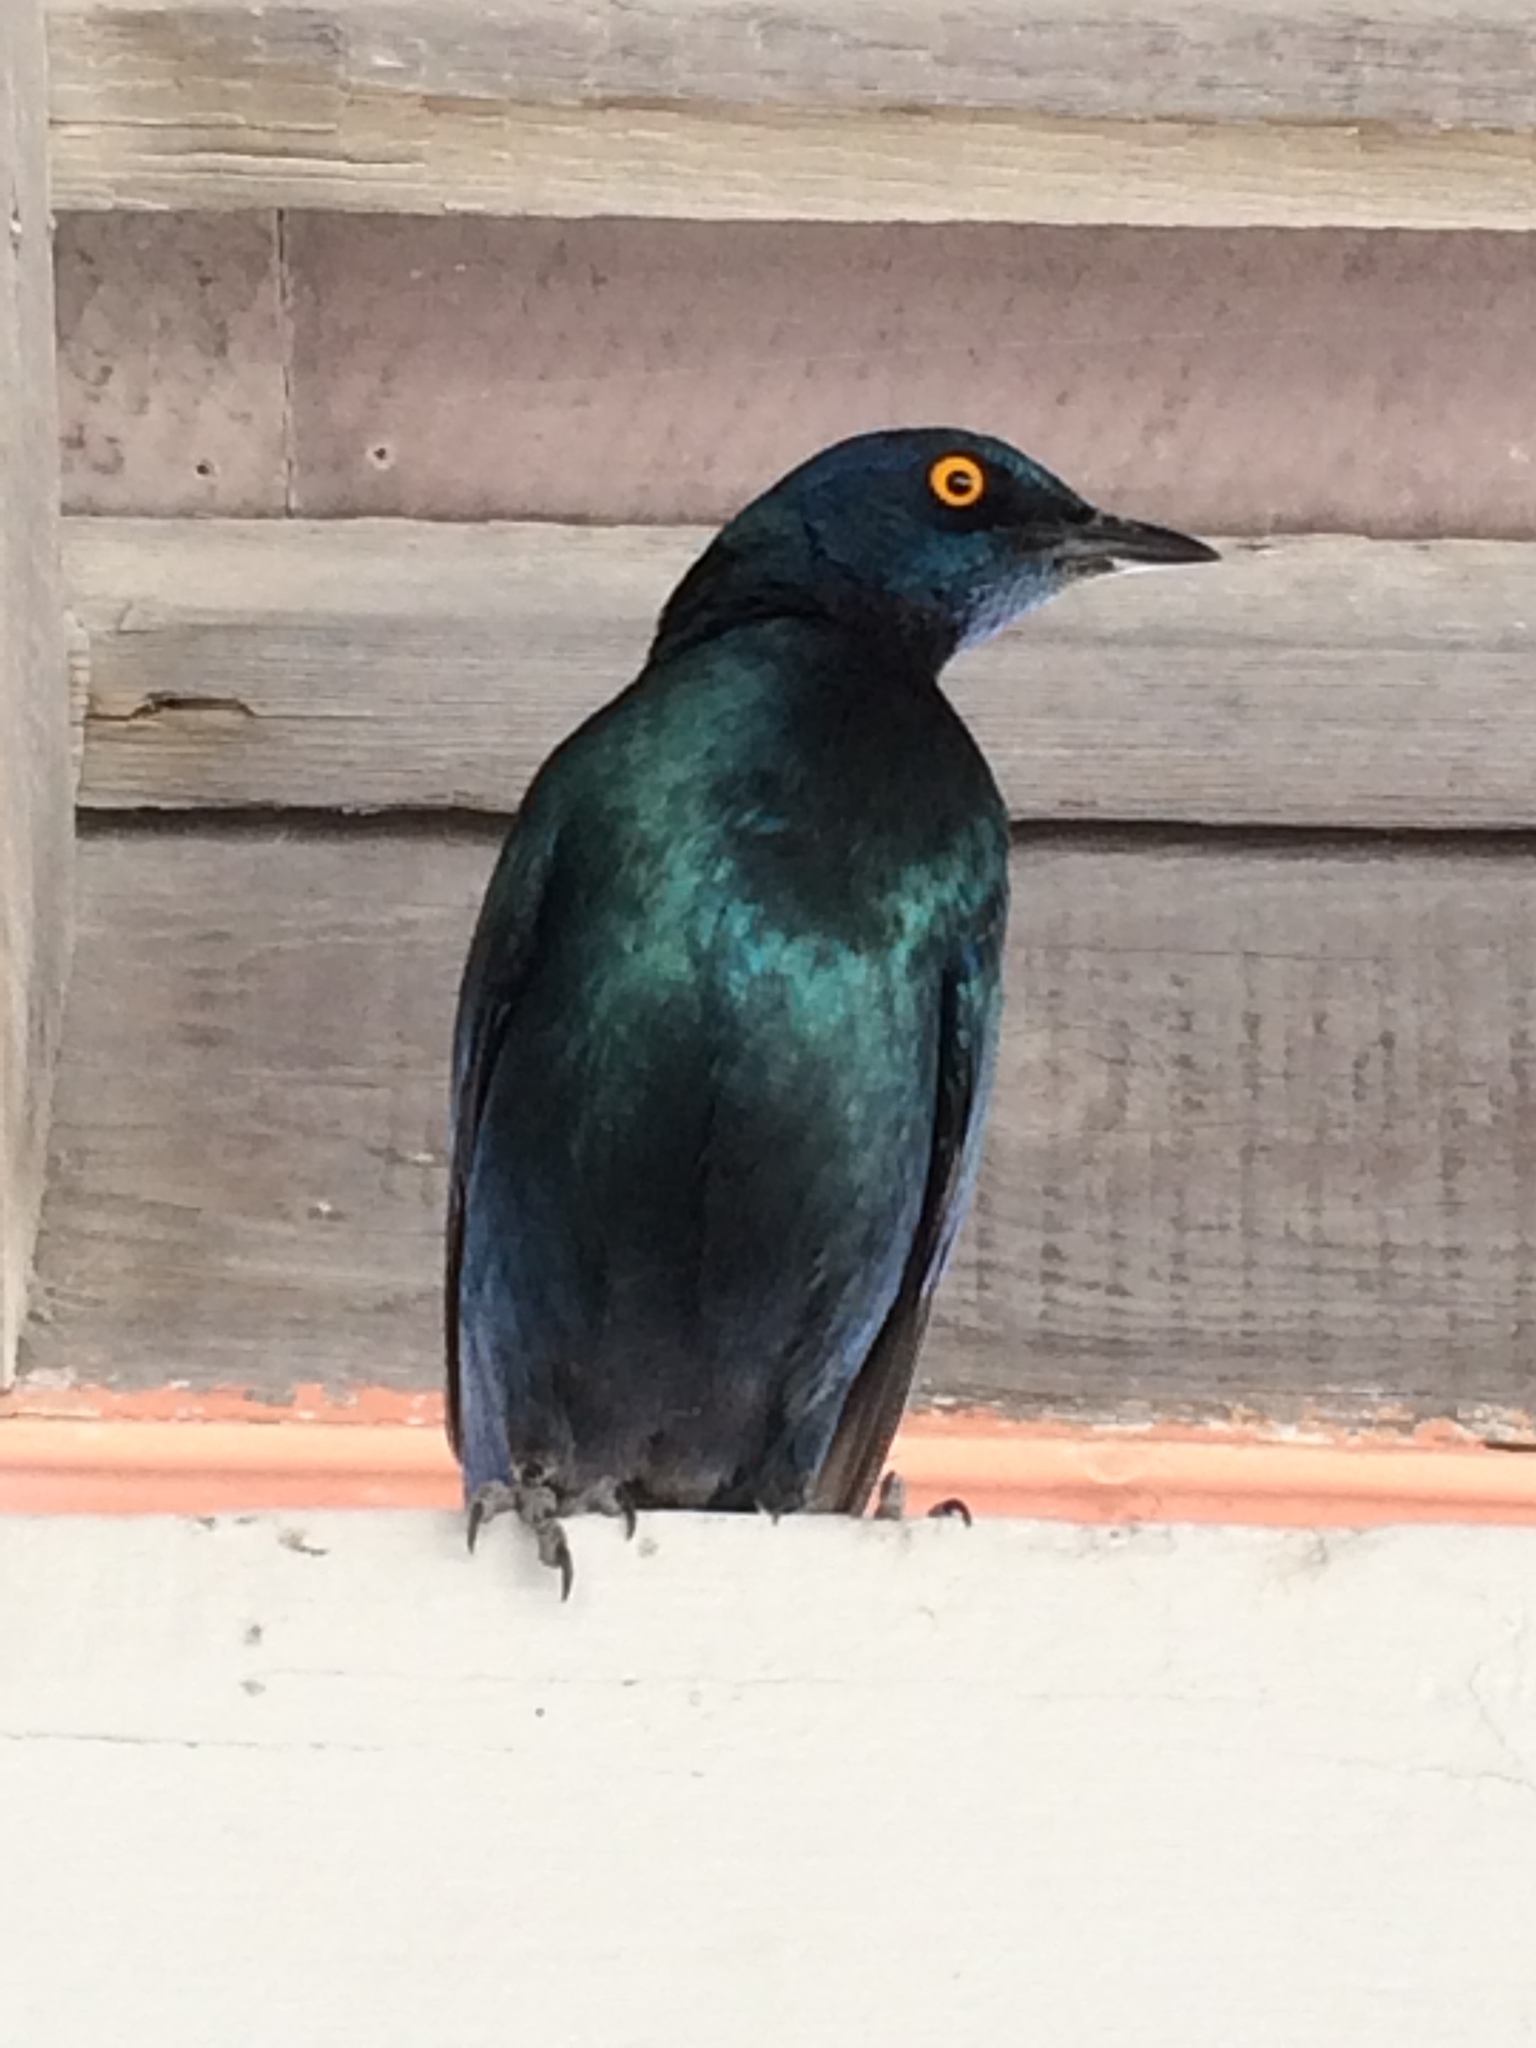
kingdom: Animalia
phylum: Chordata
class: Aves
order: Passeriformes
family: Sturnidae
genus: Lamprotornis
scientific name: Lamprotornis nitens
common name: Cape starling
